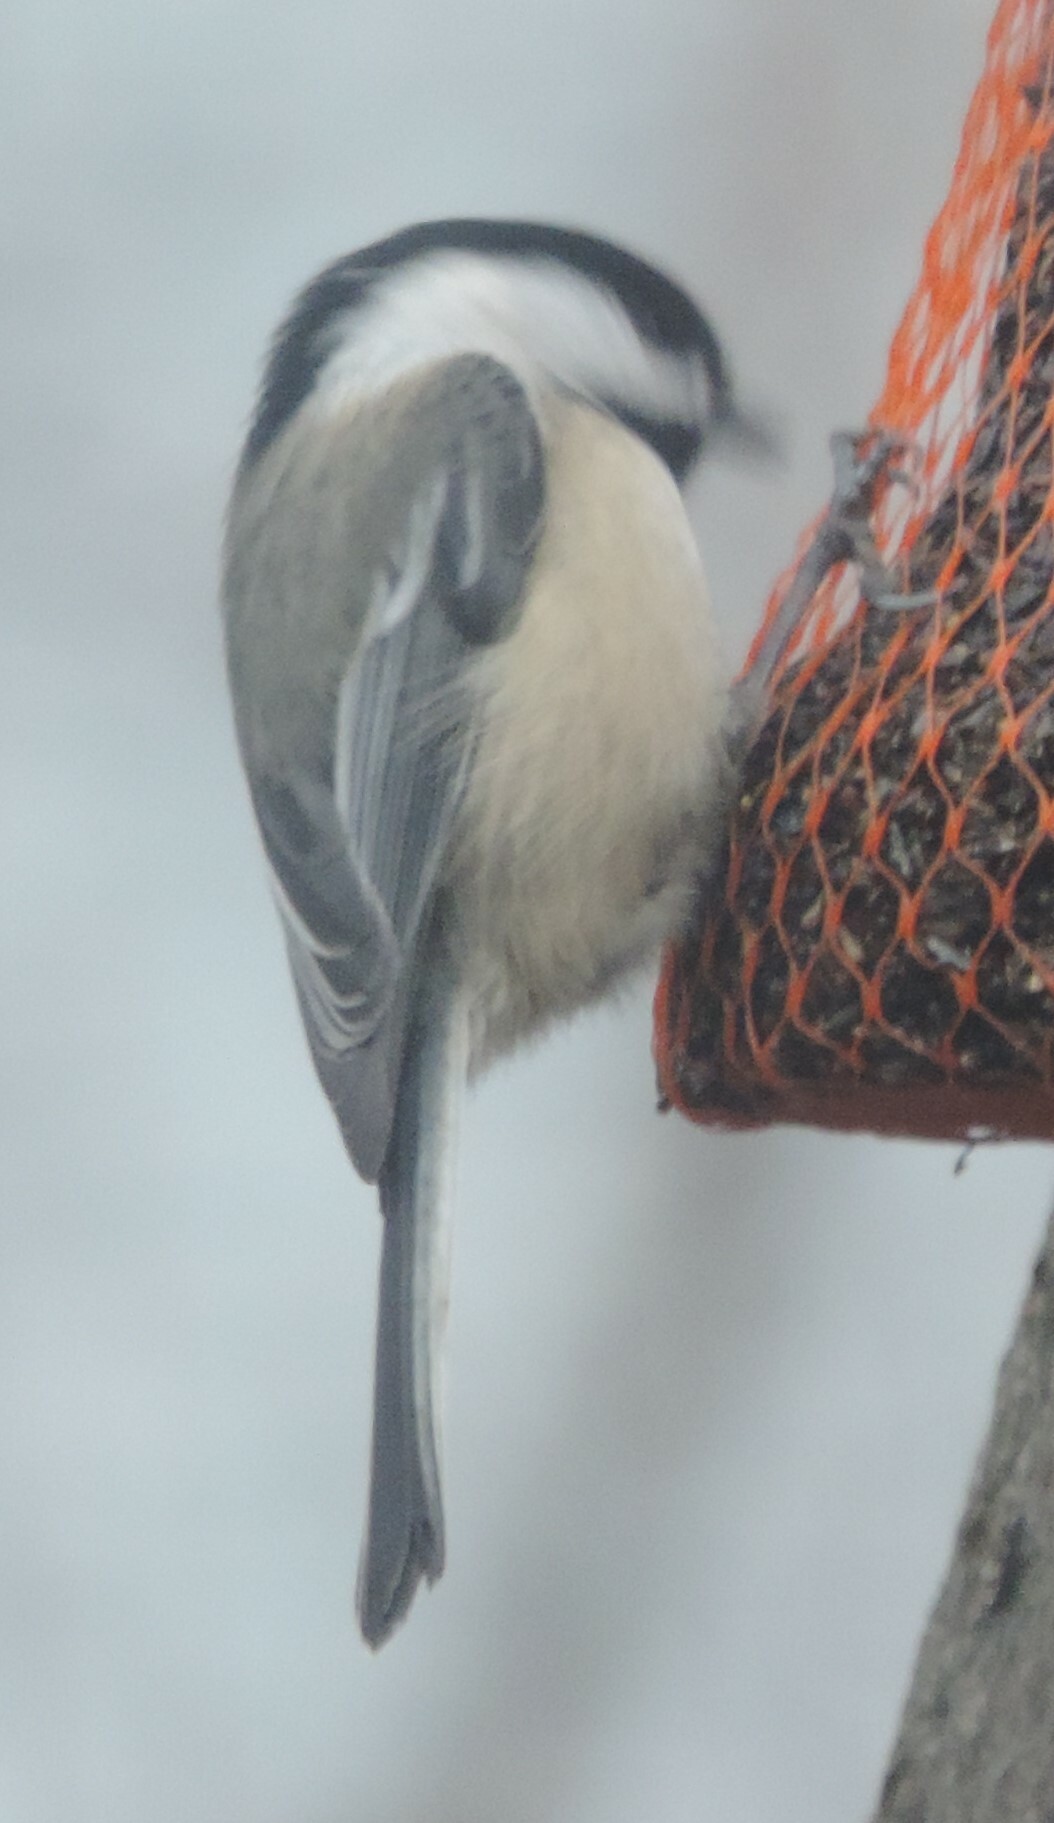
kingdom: Animalia
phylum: Chordata
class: Aves
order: Passeriformes
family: Paridae
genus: Poecile
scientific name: Poecile atricapillus
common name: Black-capped chickadee
